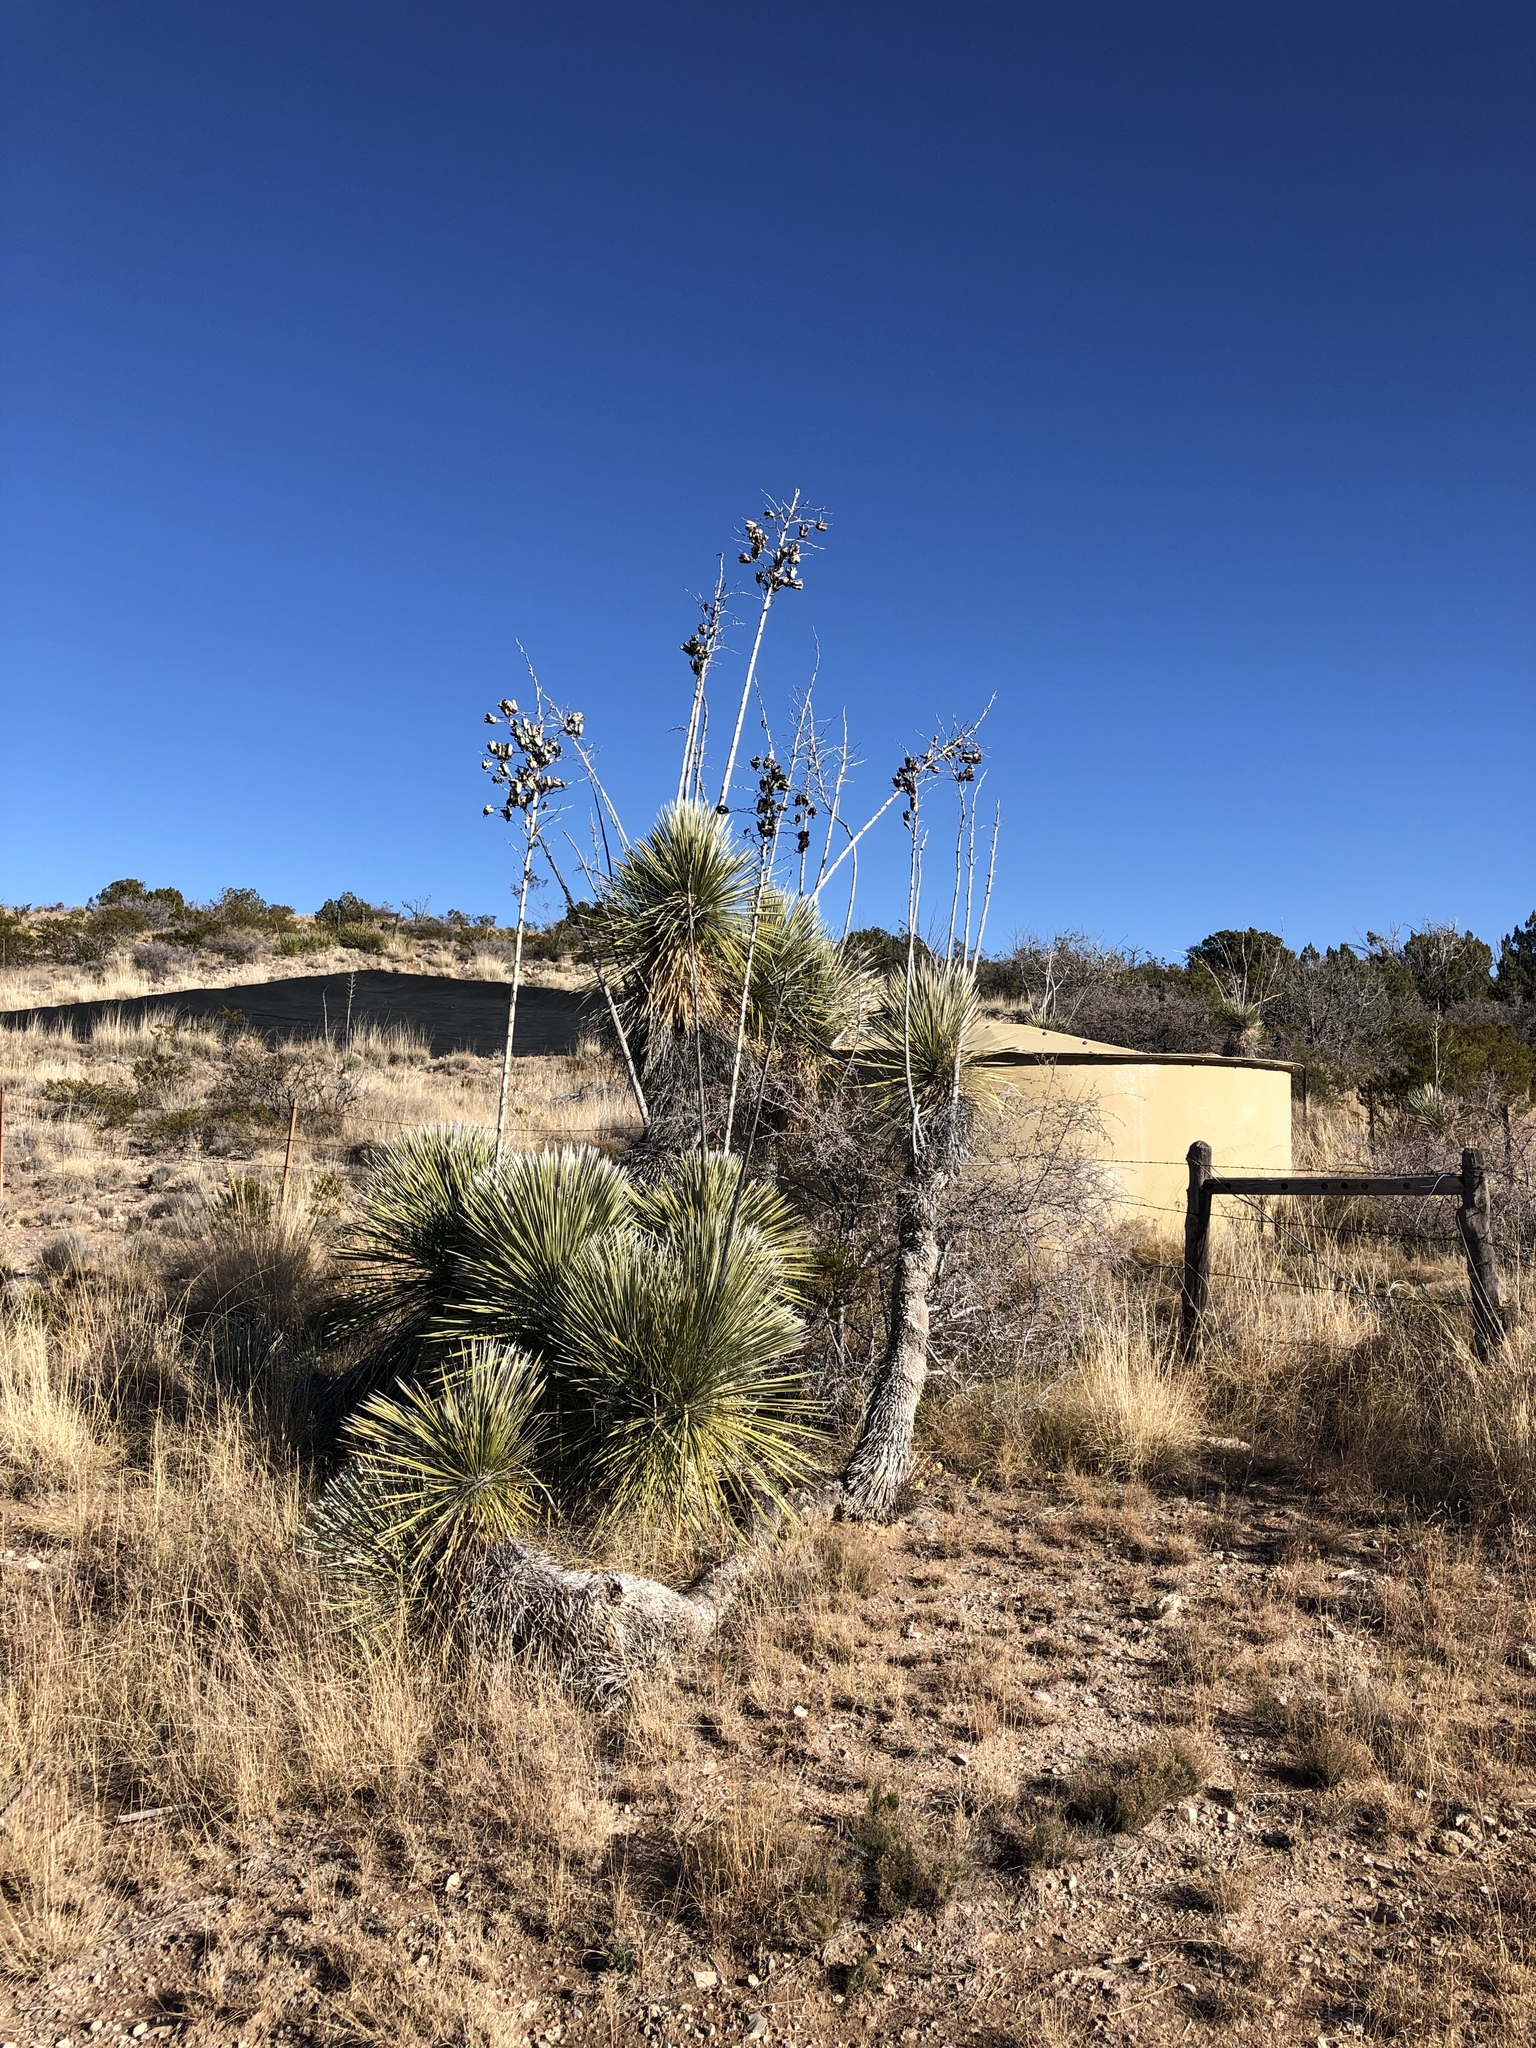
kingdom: Plantae
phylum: Tracheophyta
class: Liliopsida
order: Asparagales
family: Asparagaceae
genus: Yucca
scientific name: Yucca elata
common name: Palmella
